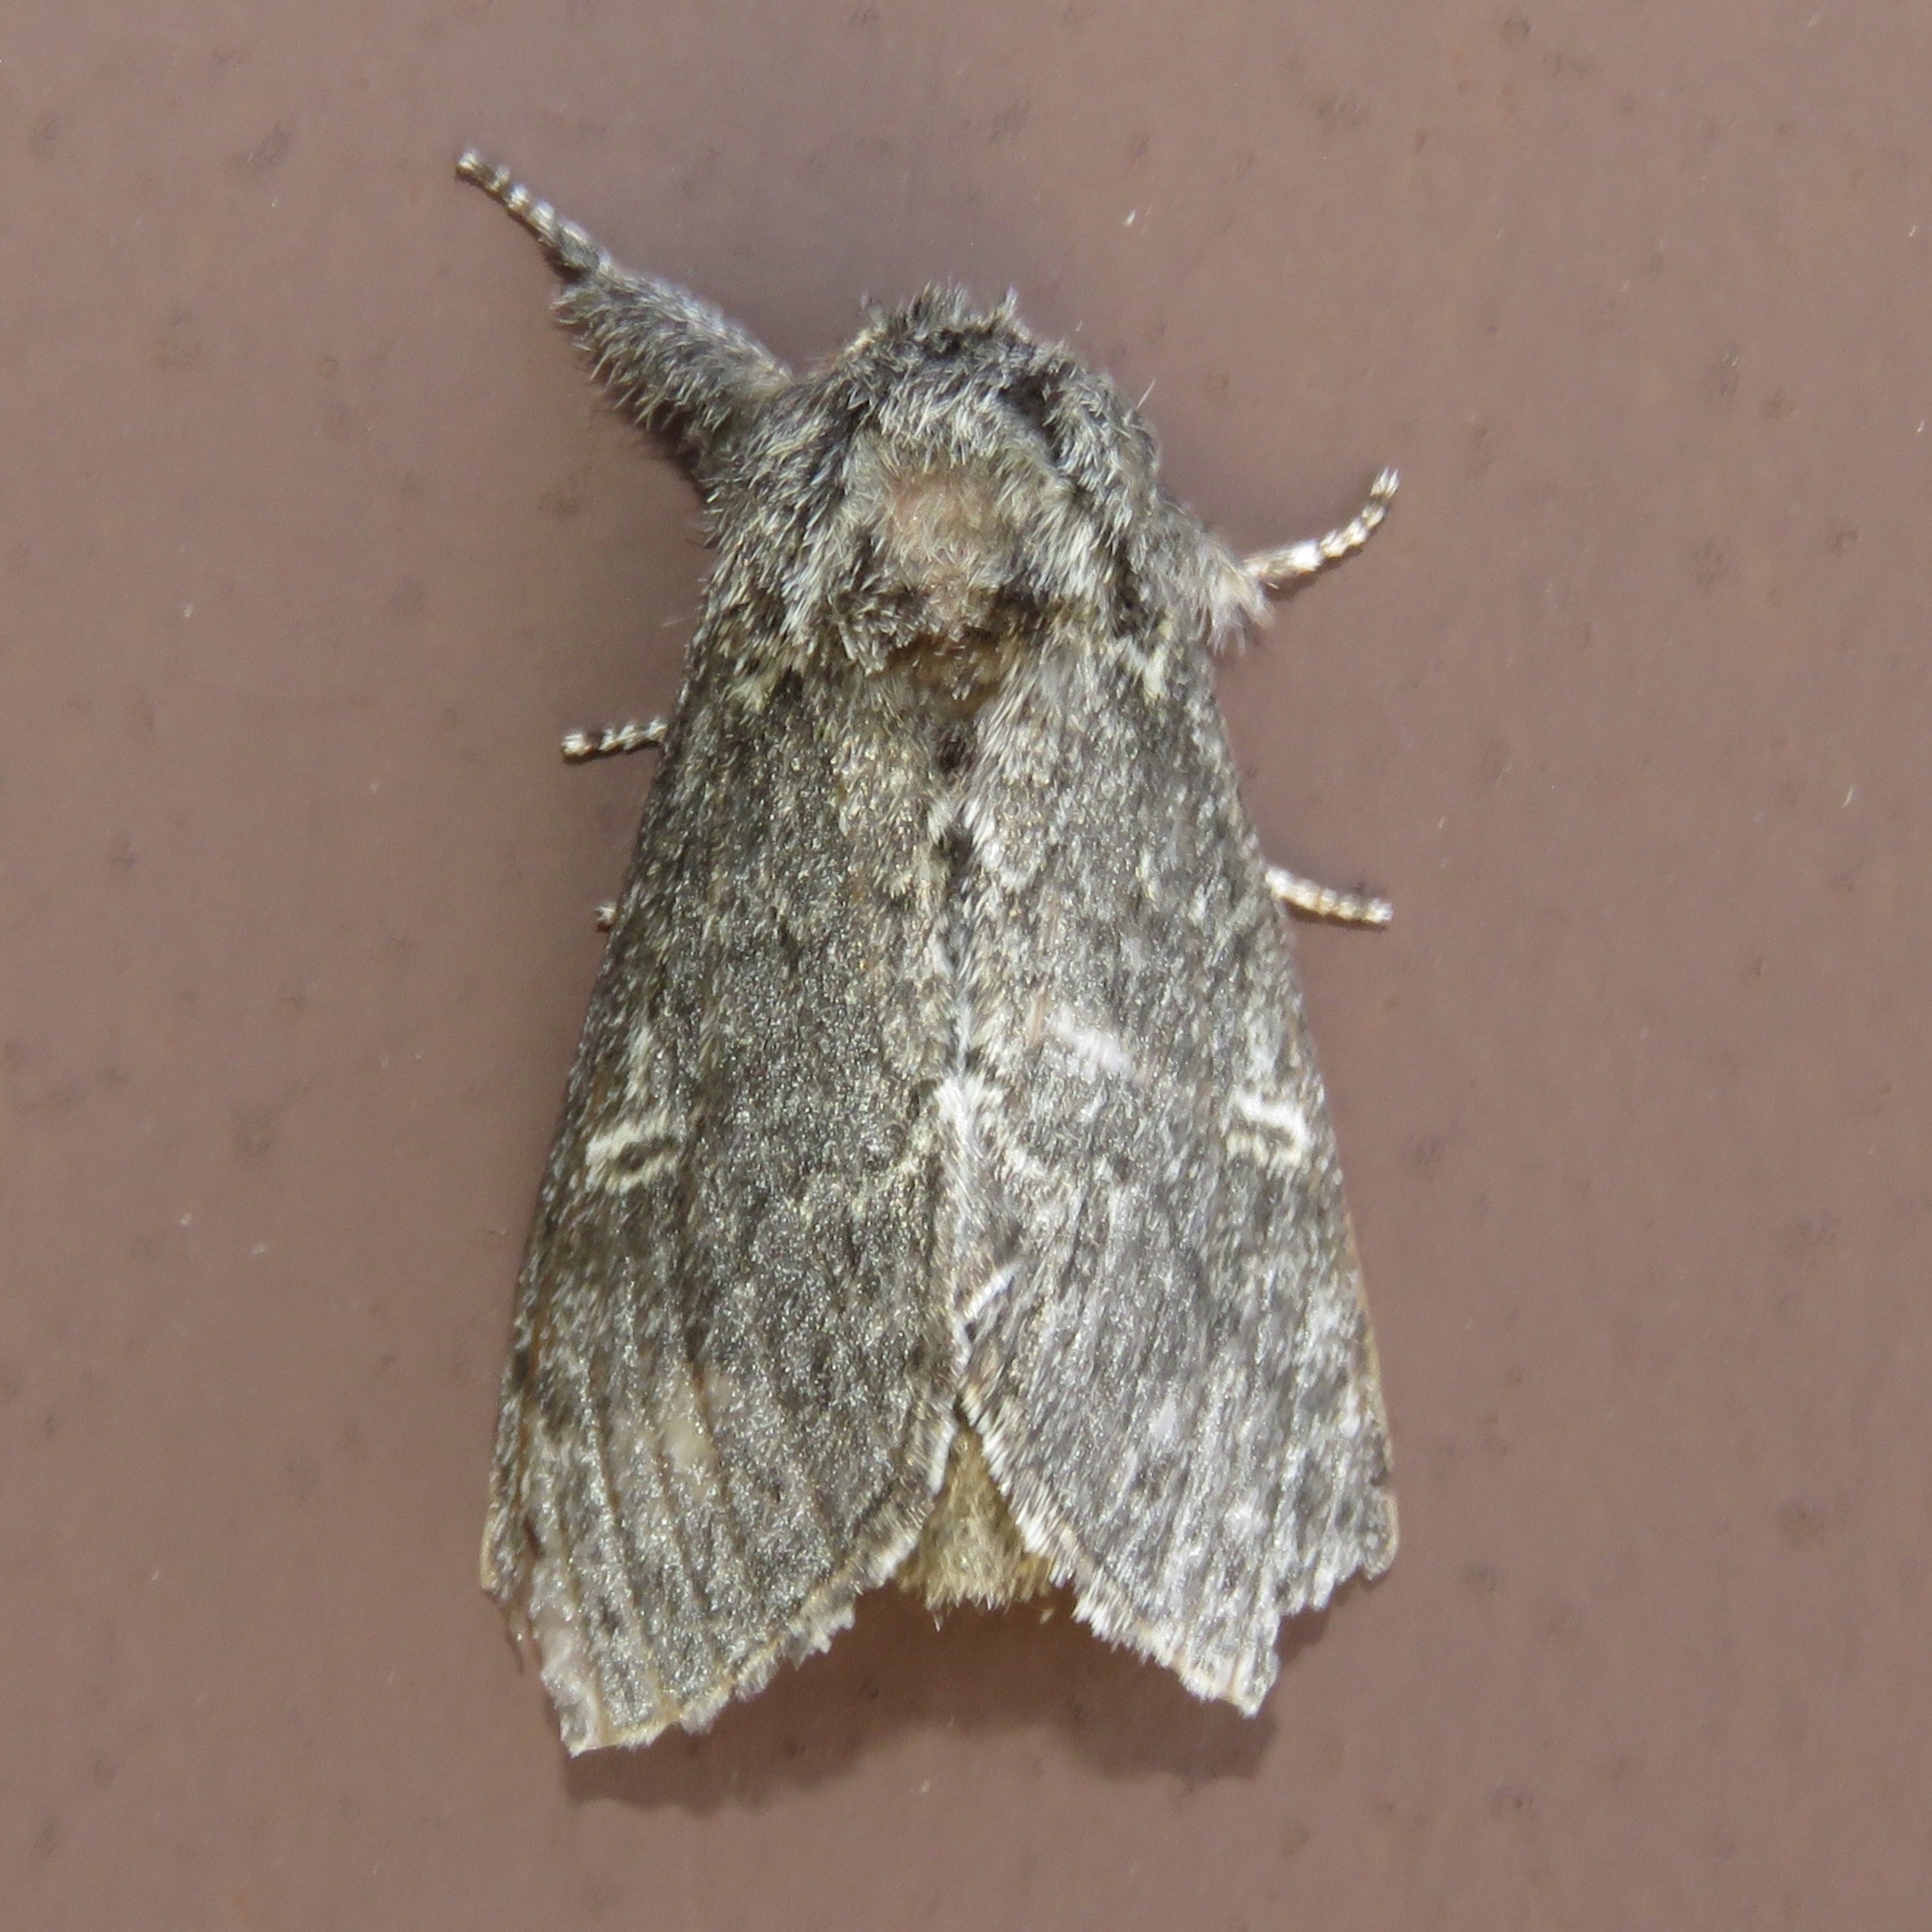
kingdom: Animalia
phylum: Arthropoda
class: Insecta
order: Lepidoptera
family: Notodontidae
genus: Notodonta
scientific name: Notodonta torva
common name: Large dark prominent
